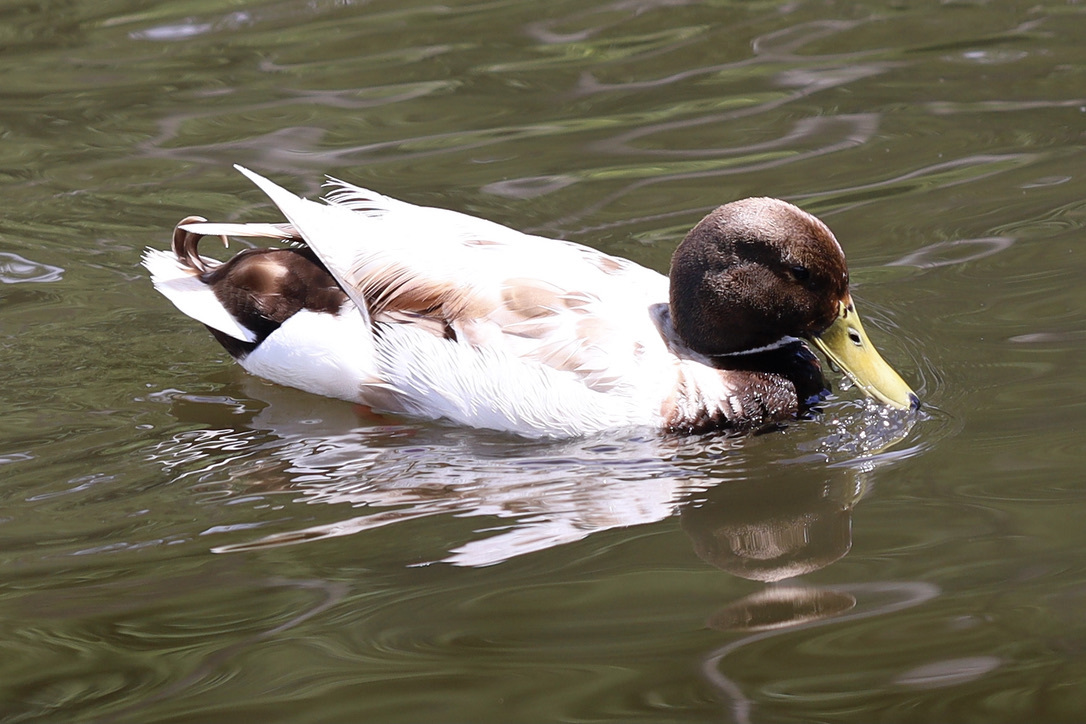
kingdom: Animalia
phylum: Chordata
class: Aves
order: Anseriformes
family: Anatidae
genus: Anas
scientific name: Anas platyrhynchos
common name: Mallard
